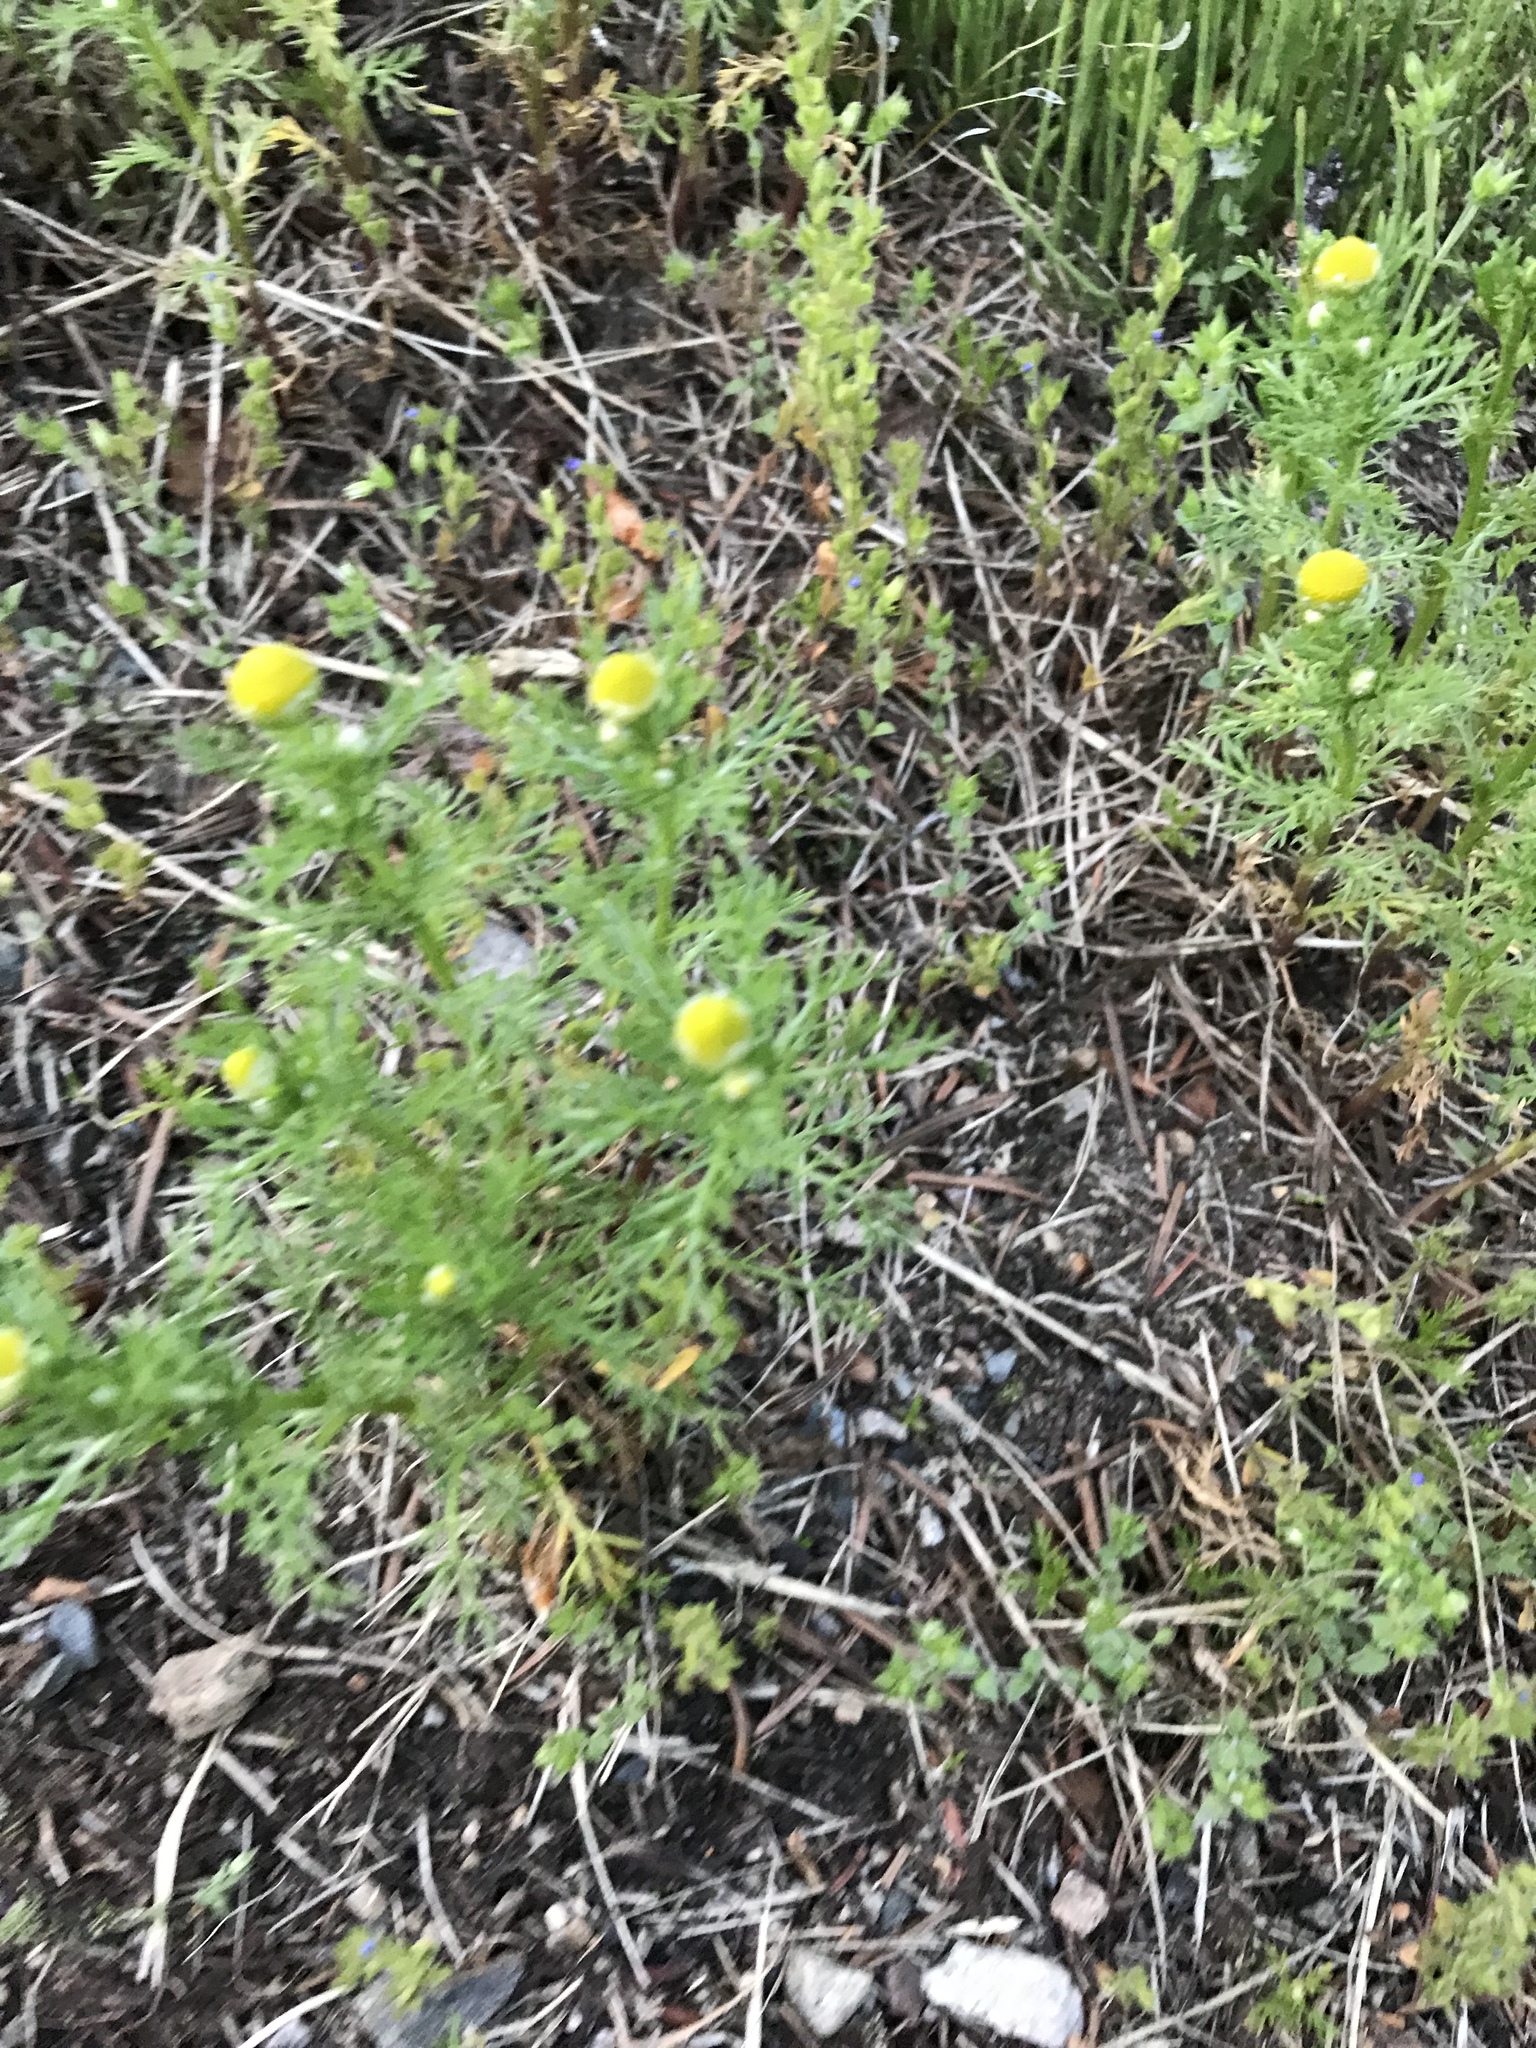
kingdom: Plantae
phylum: Tracheophyta
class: Magnoliopsida
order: Asterales
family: Asteraceae
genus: Matricaria
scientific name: Matricaria discoidea
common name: Disc mayweed
